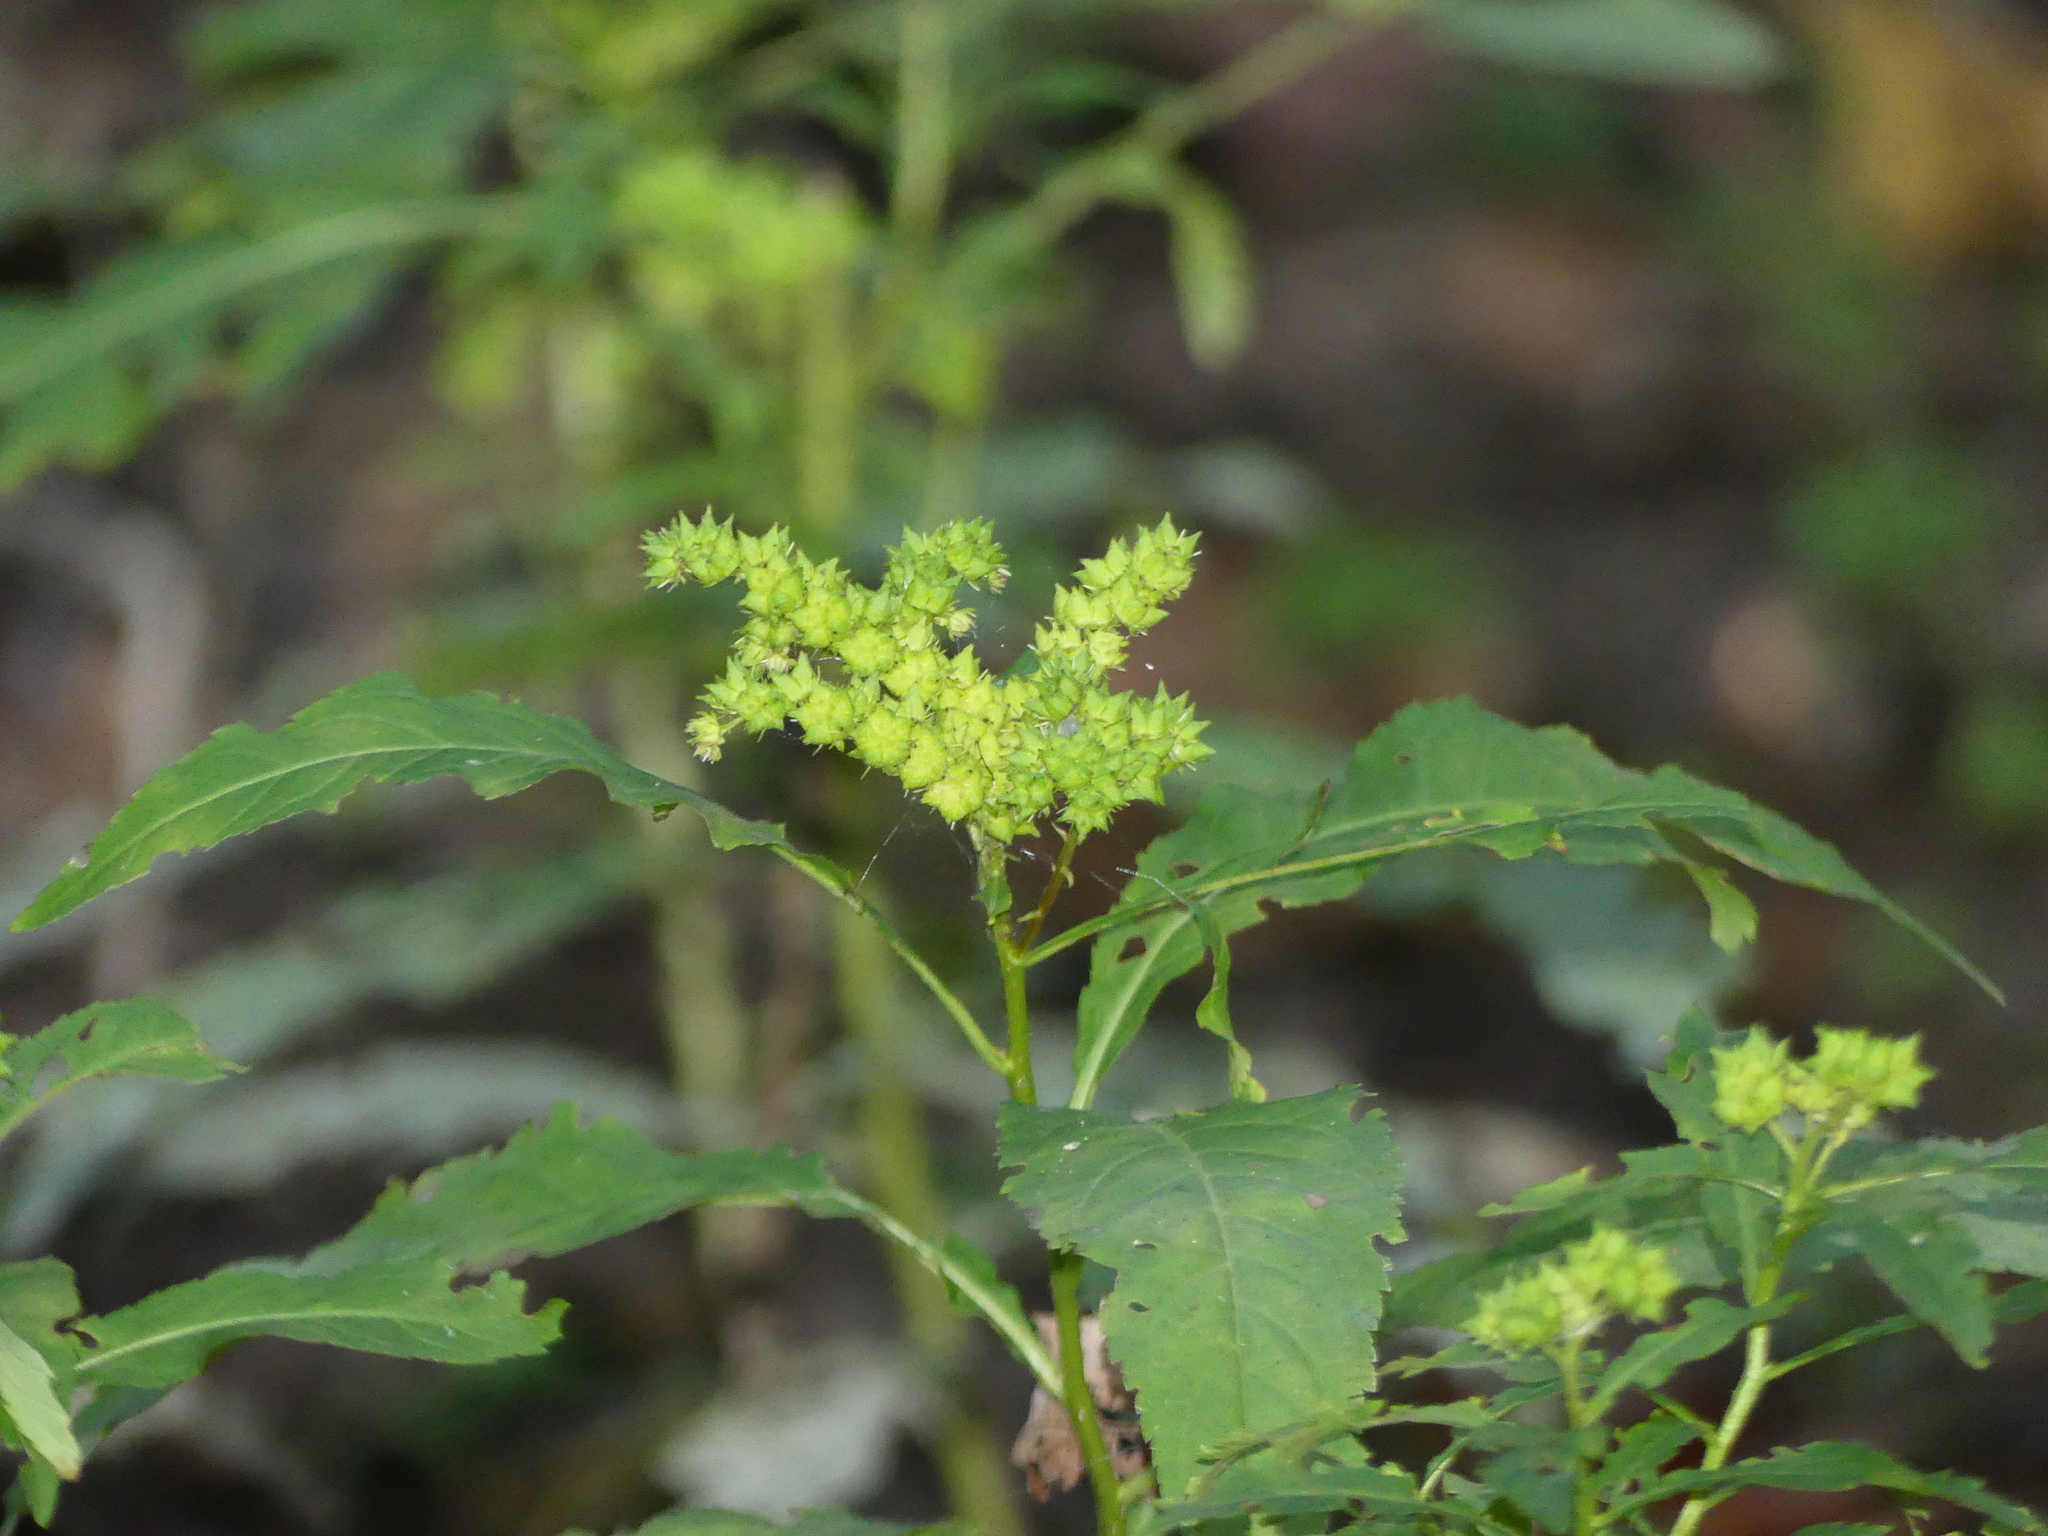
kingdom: Plantae
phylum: Tracheophyta
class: Magnoliopsida
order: Saxifragales
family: Penthoraceae
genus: Penthorum
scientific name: Penthorum sedoides
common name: Ditch stonecrop
